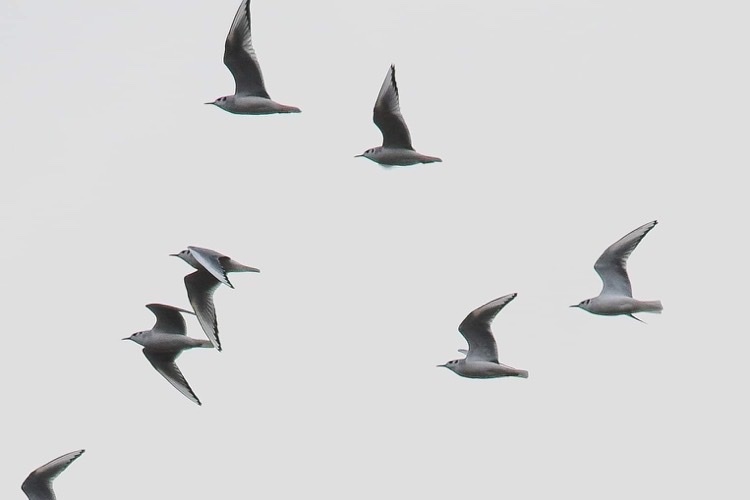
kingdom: Animalia
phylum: Chordata
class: Aves
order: Charadriiformes
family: Laridae
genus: Chroicocephalus
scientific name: Chroicocephalus philadelphia
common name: Bonaparte's gull
